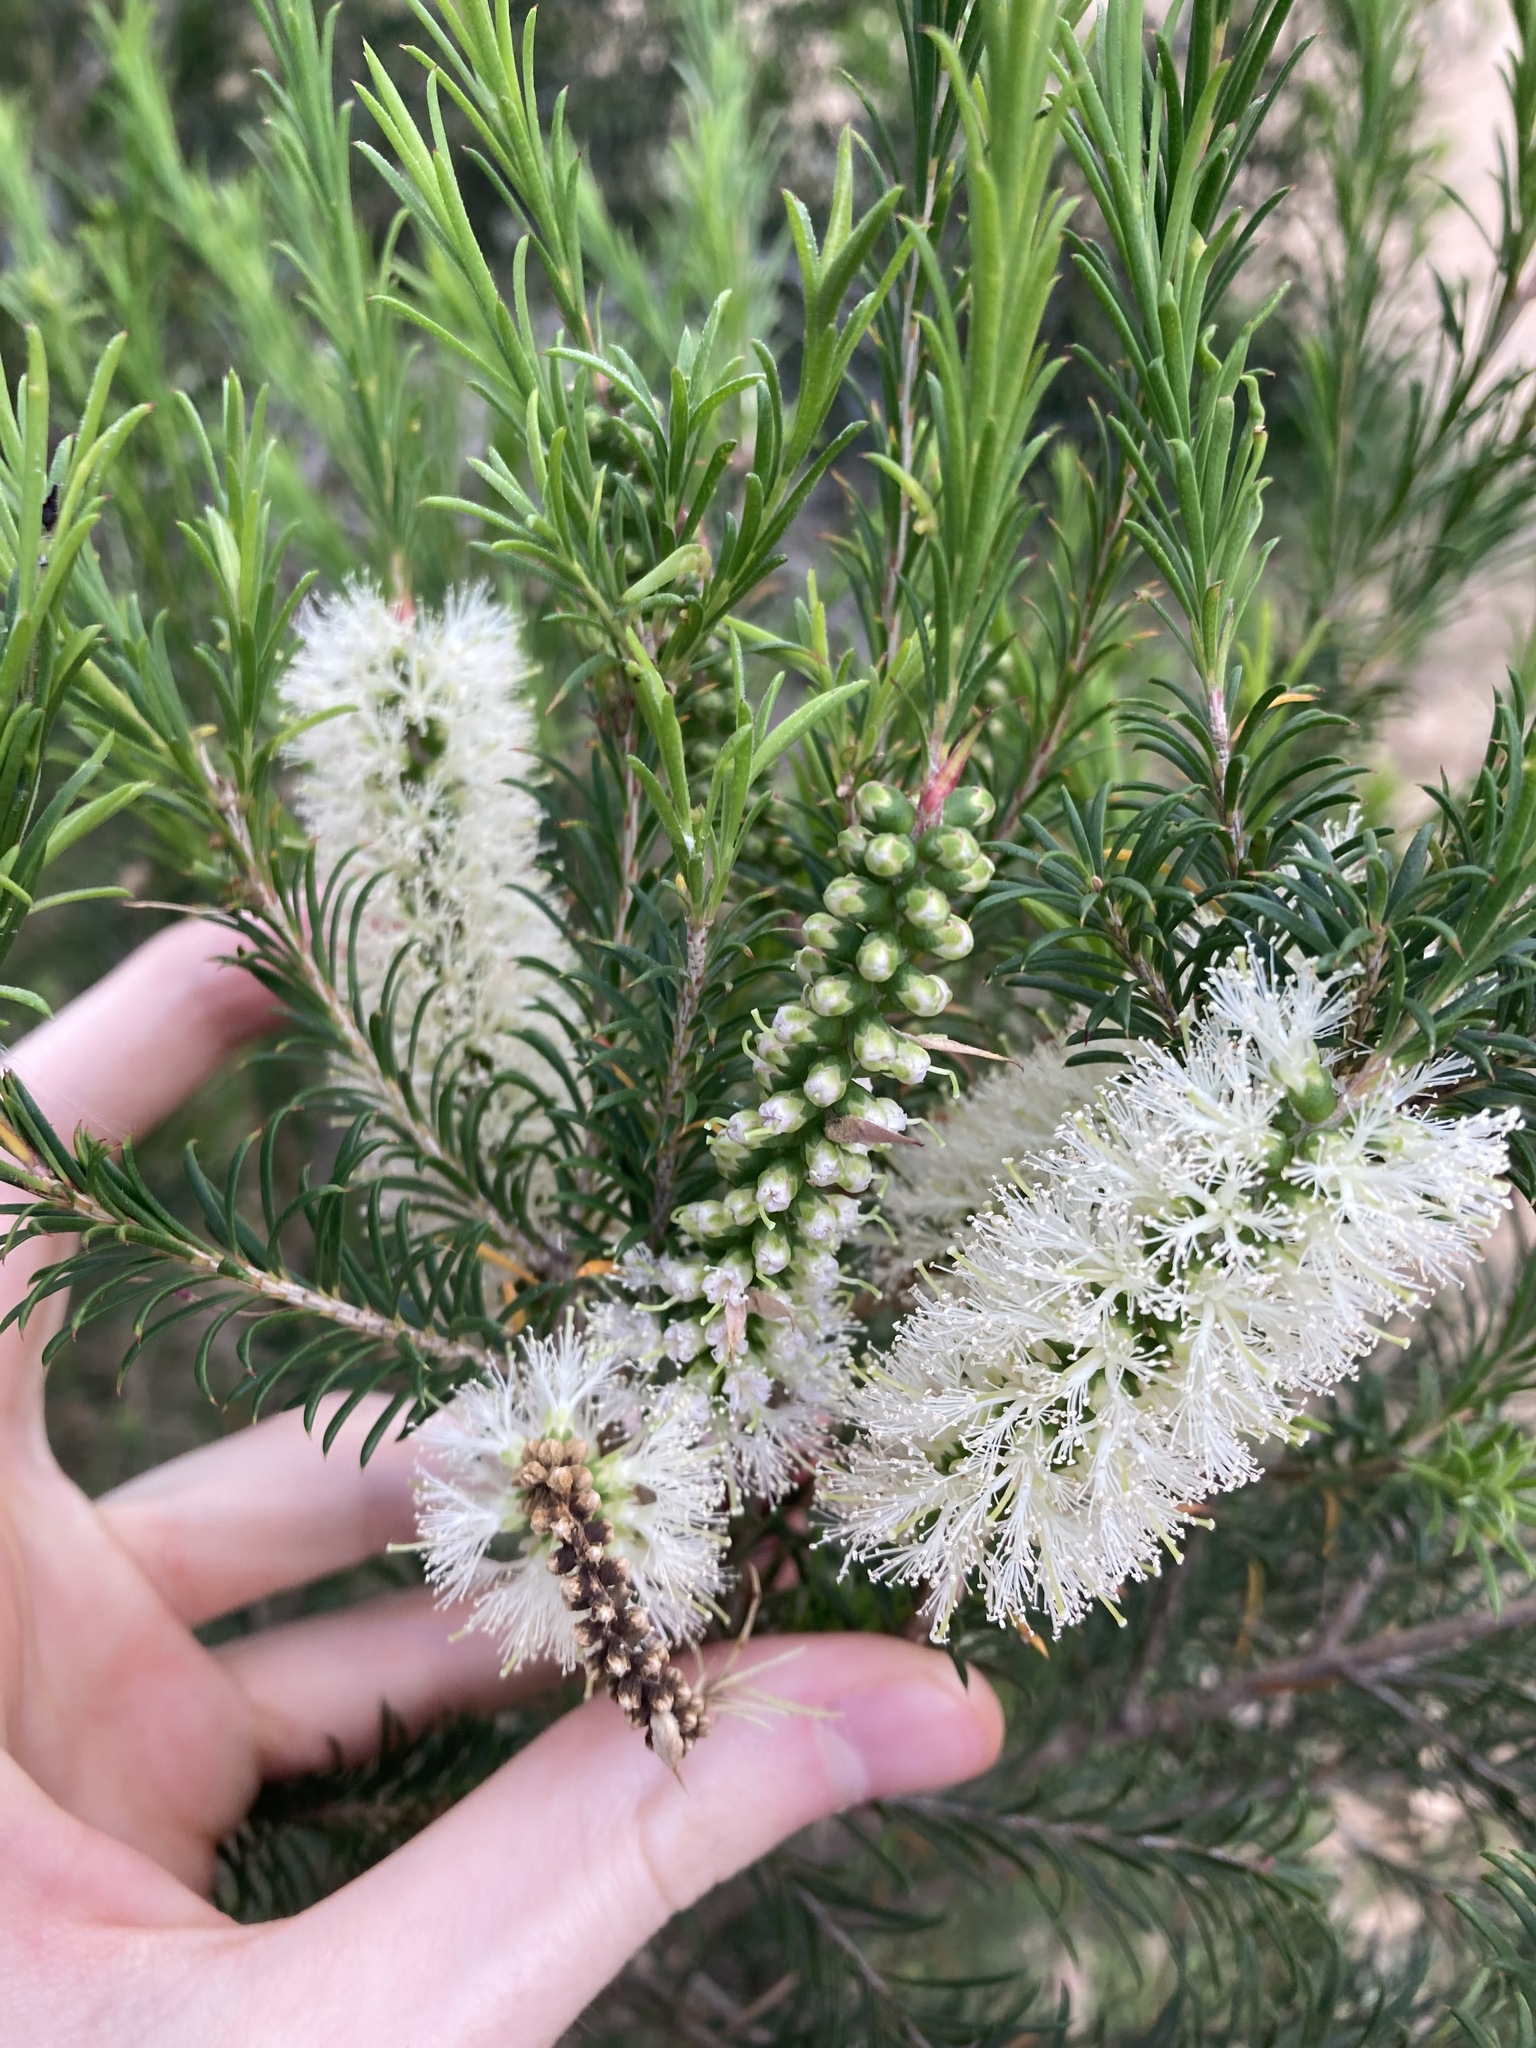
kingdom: Plantae
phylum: Tracheophyta
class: Magnoliopsida
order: Myrtales
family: Myrtaceae
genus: Melaleuca
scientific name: Melaleuca armillaris
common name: Bracelet honey myrtle
